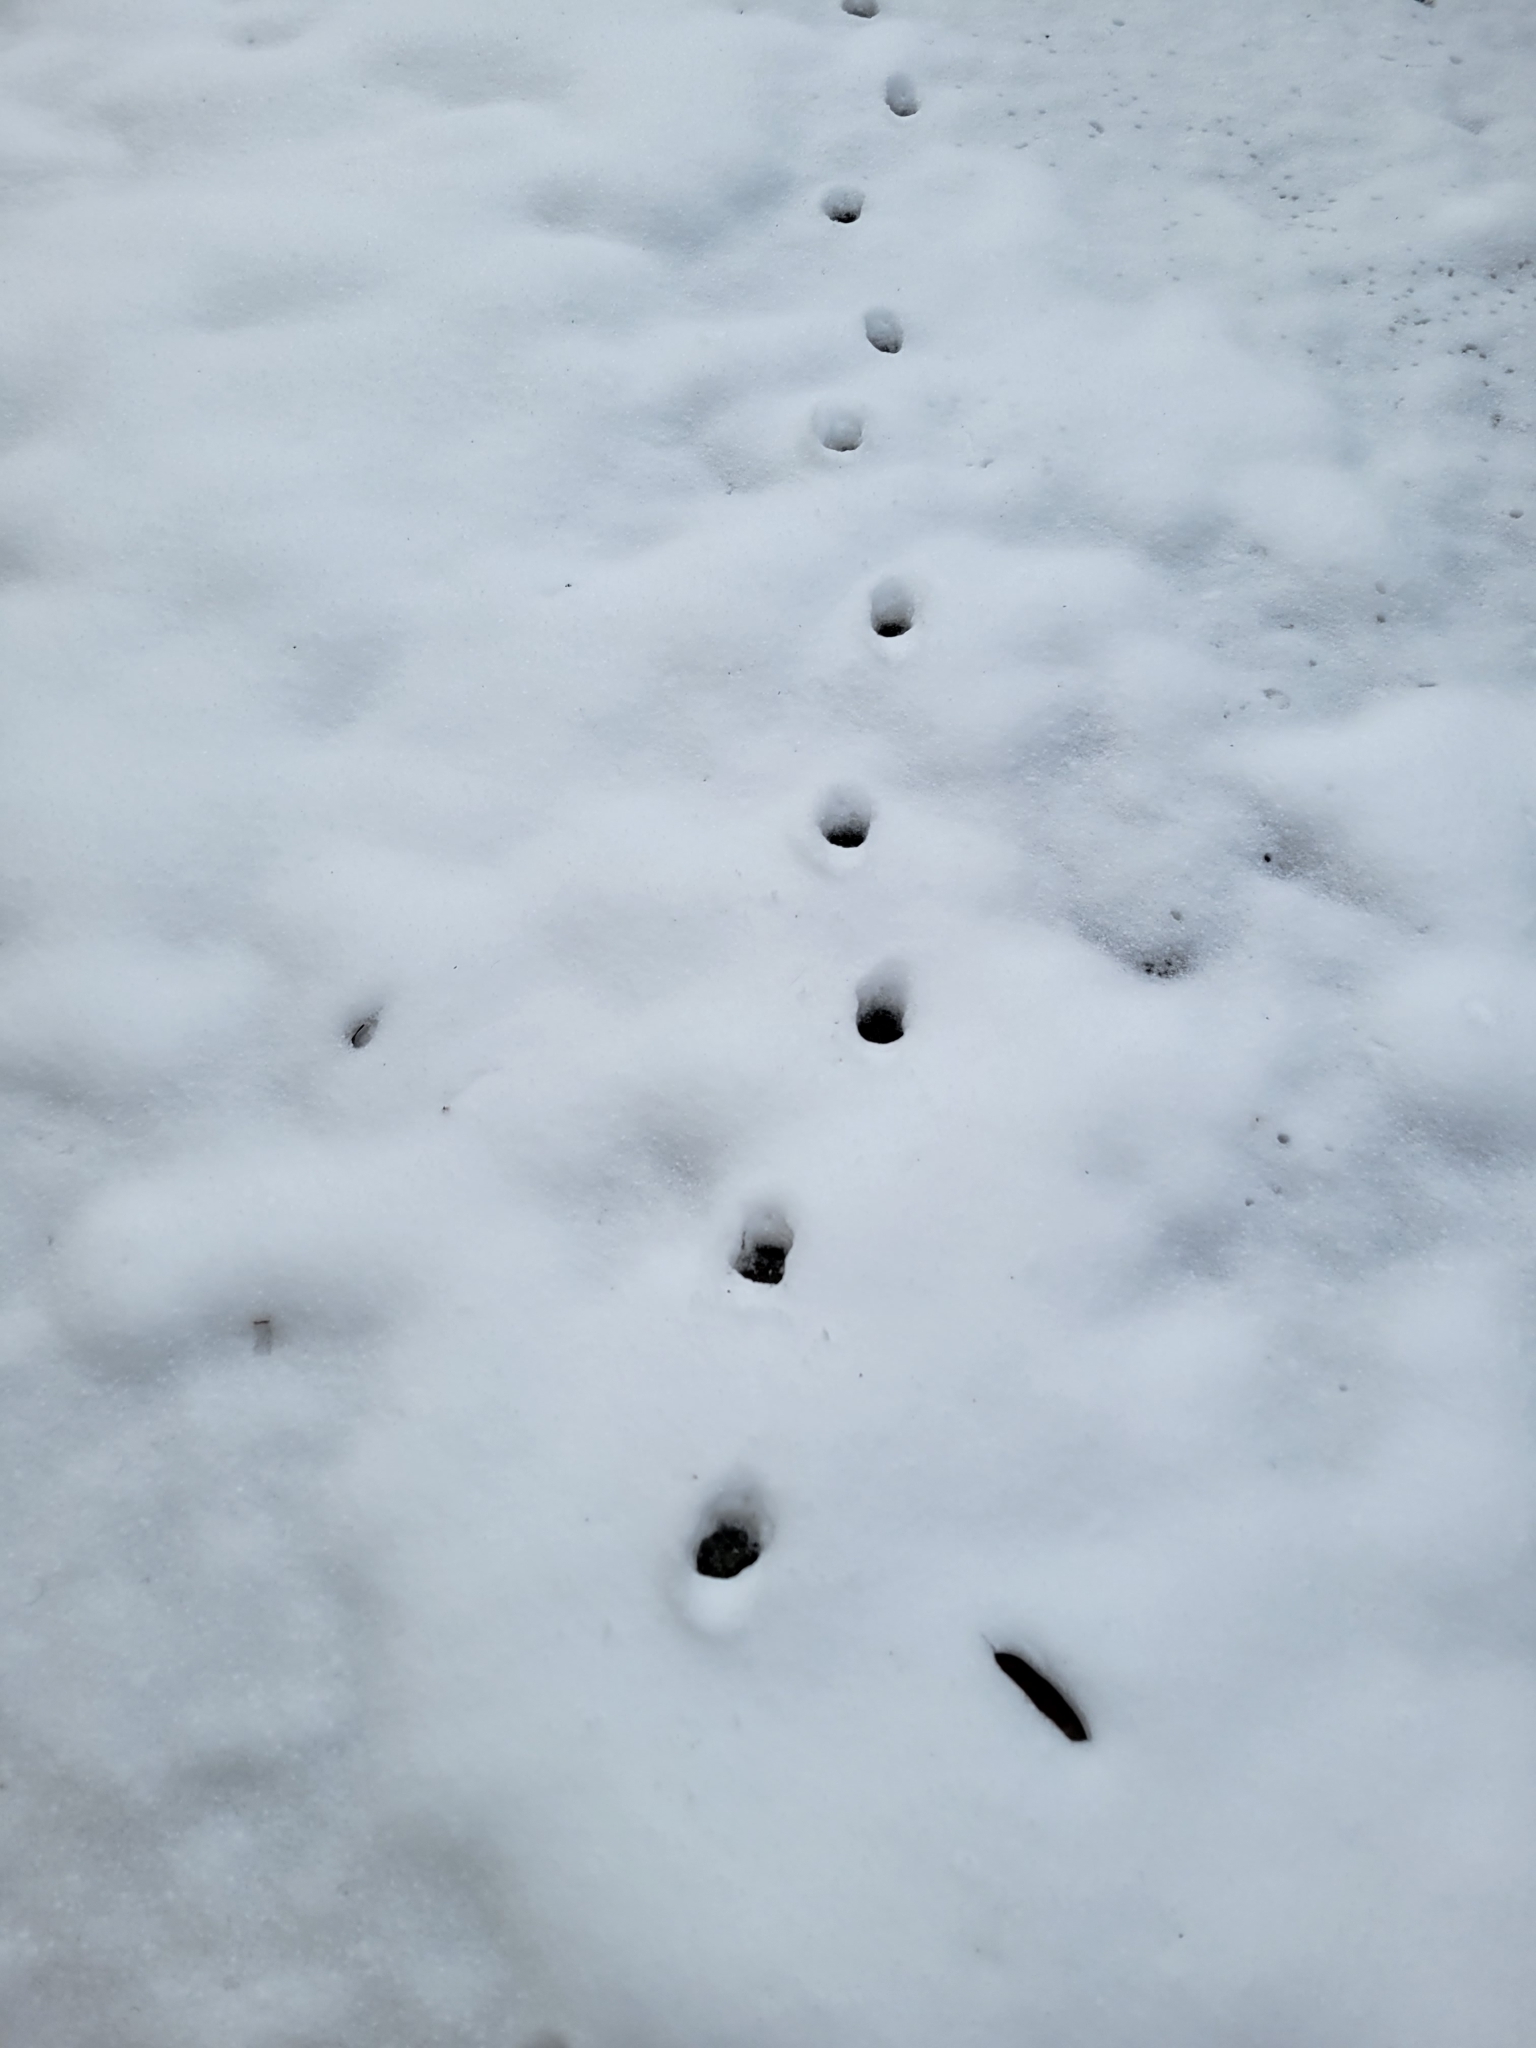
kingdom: Animalia
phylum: Chordata
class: Mammalia
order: Carnivora
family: Felidae
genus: Felis
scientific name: Felis catus
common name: Domestic cat
